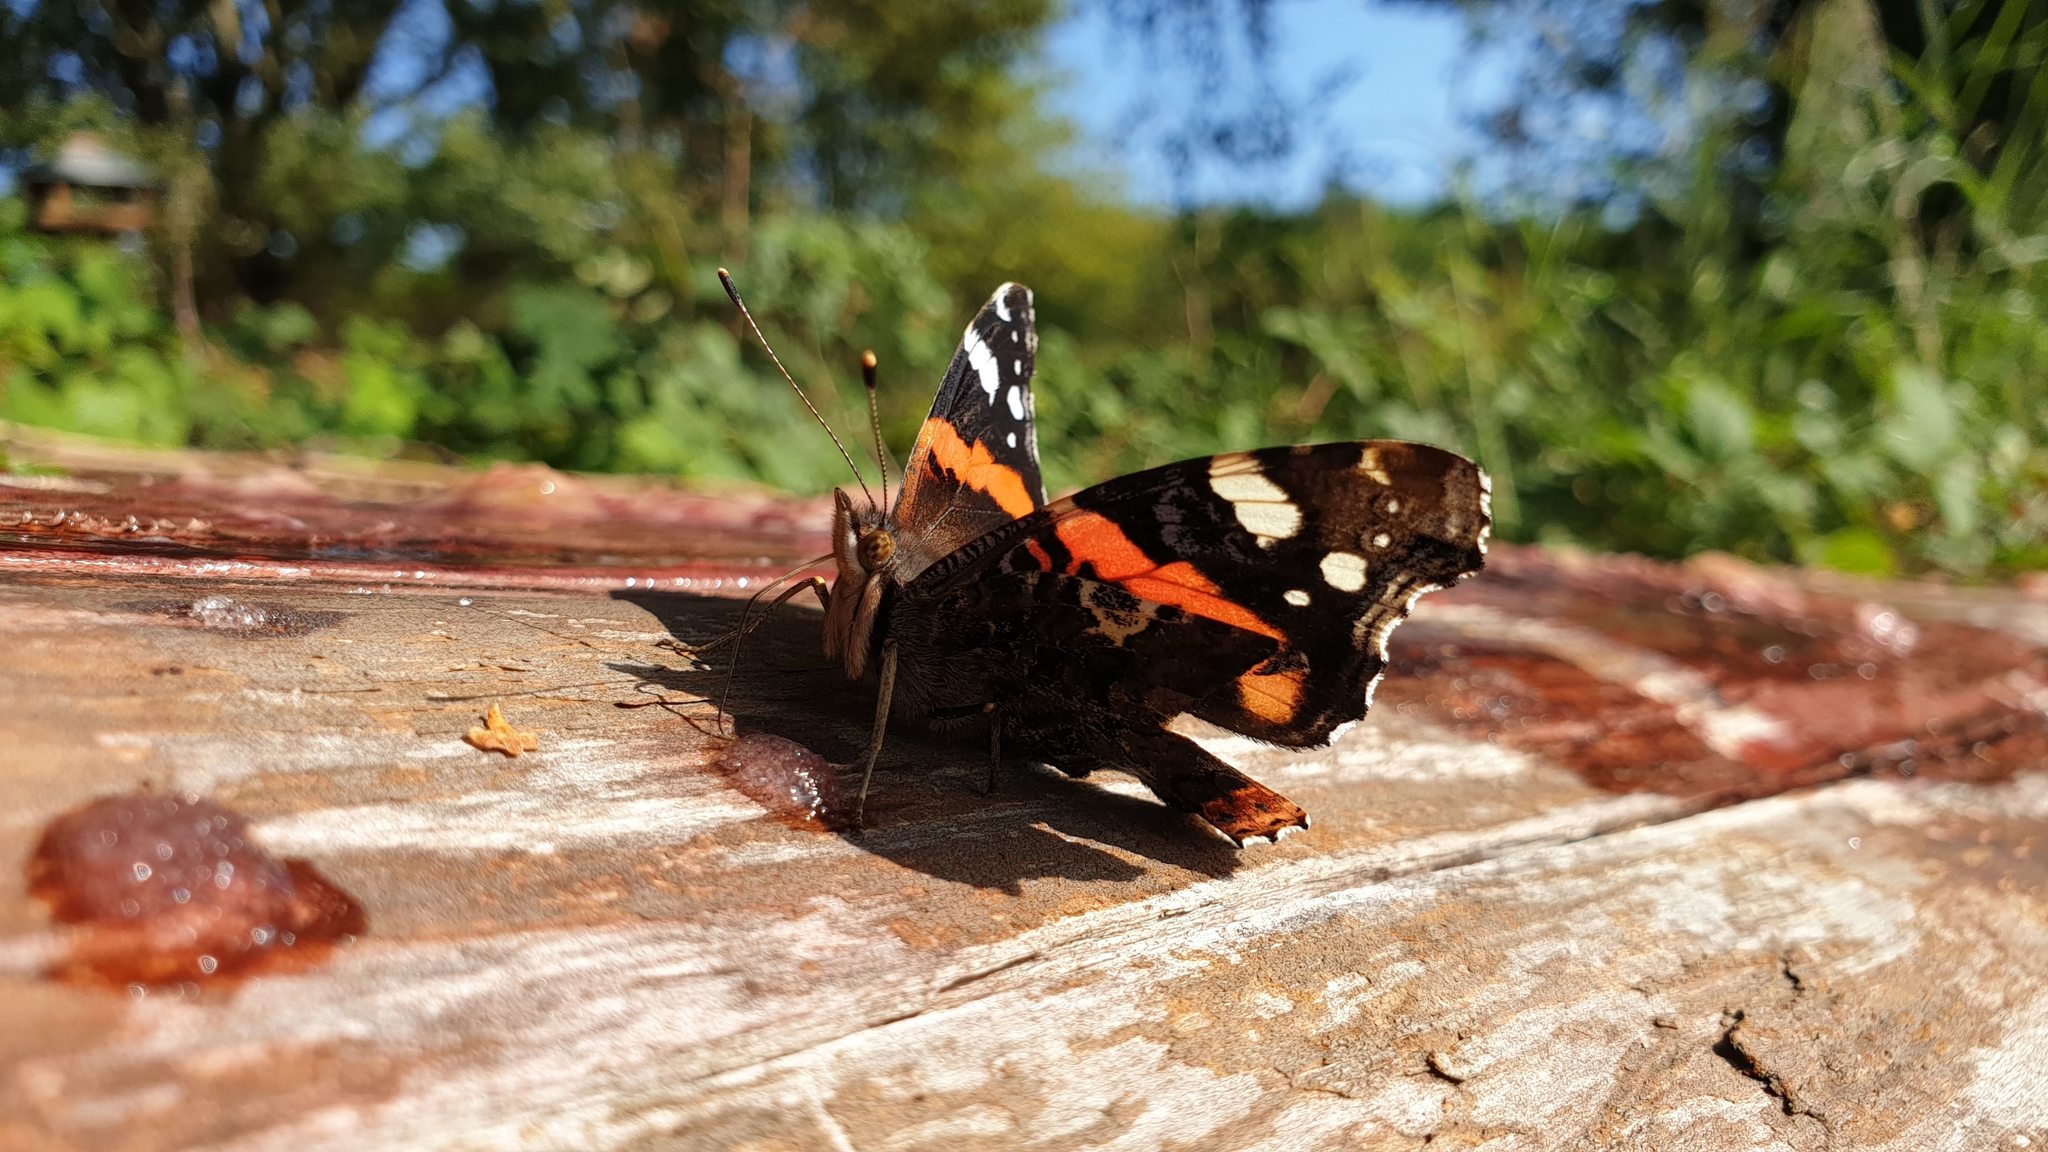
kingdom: Animalia
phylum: Arthropoda
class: Insecta
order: Lepidoptera
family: Nymphalidae
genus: Vanessa
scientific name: Vanessa atalanta
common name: Red admiral
